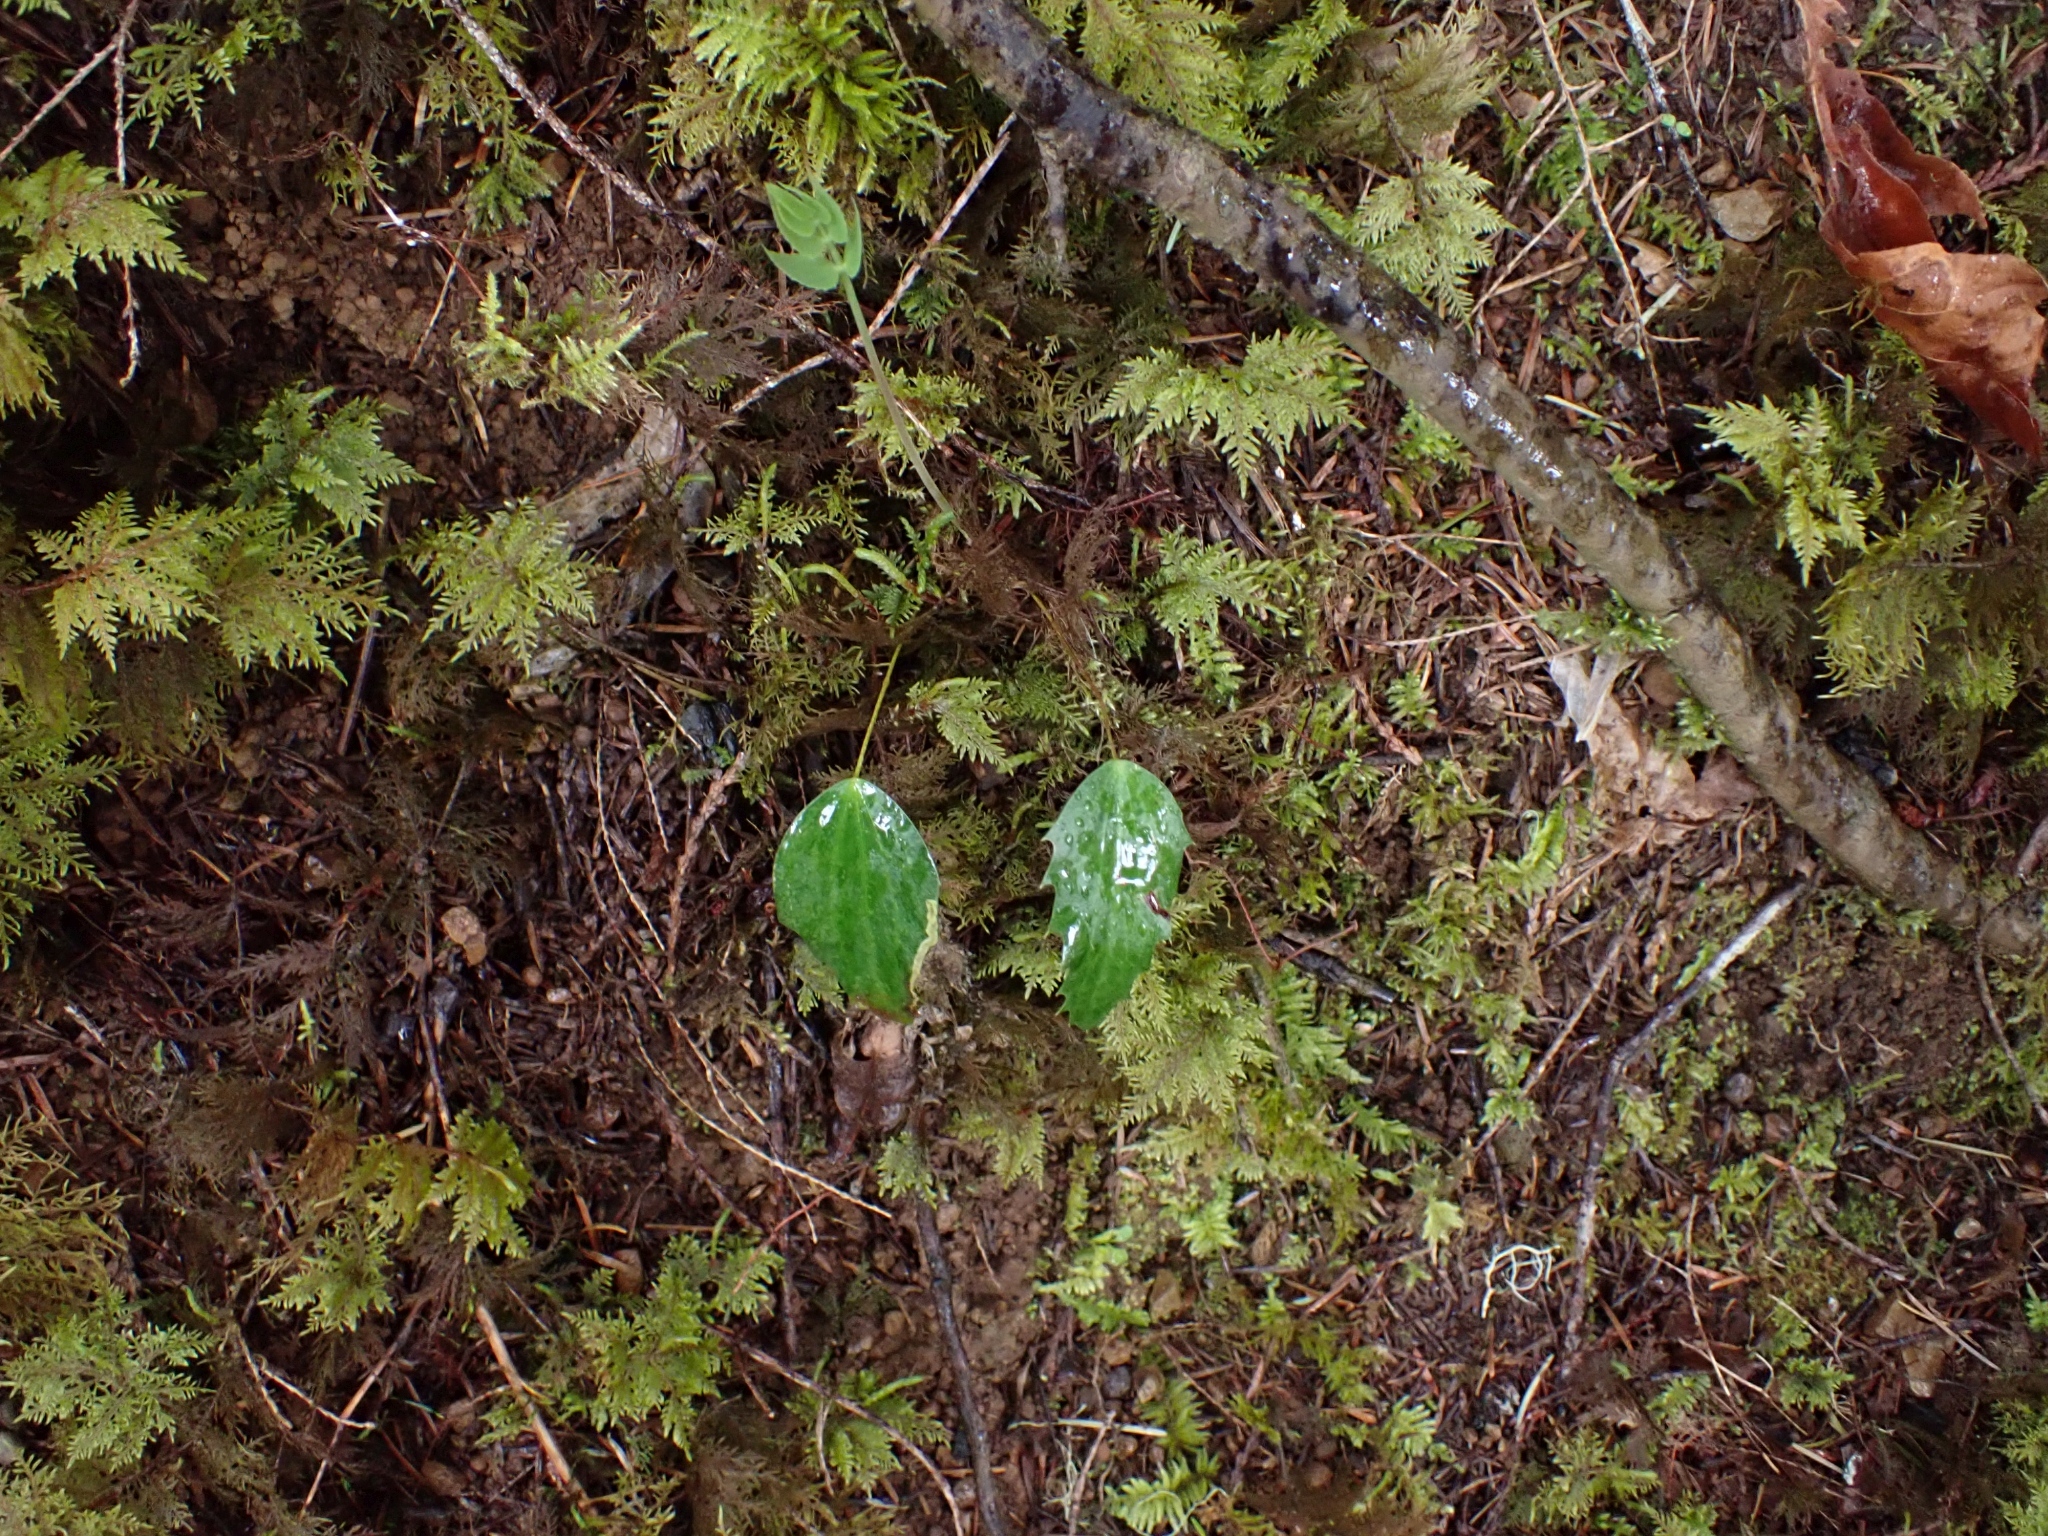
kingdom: Plantae
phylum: Tracheophyta
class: Magnoliopsida
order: Ranunculales
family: Berberidaceae
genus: Mahonia
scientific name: Mahonia nervosa
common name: Cascade oregon-grape
